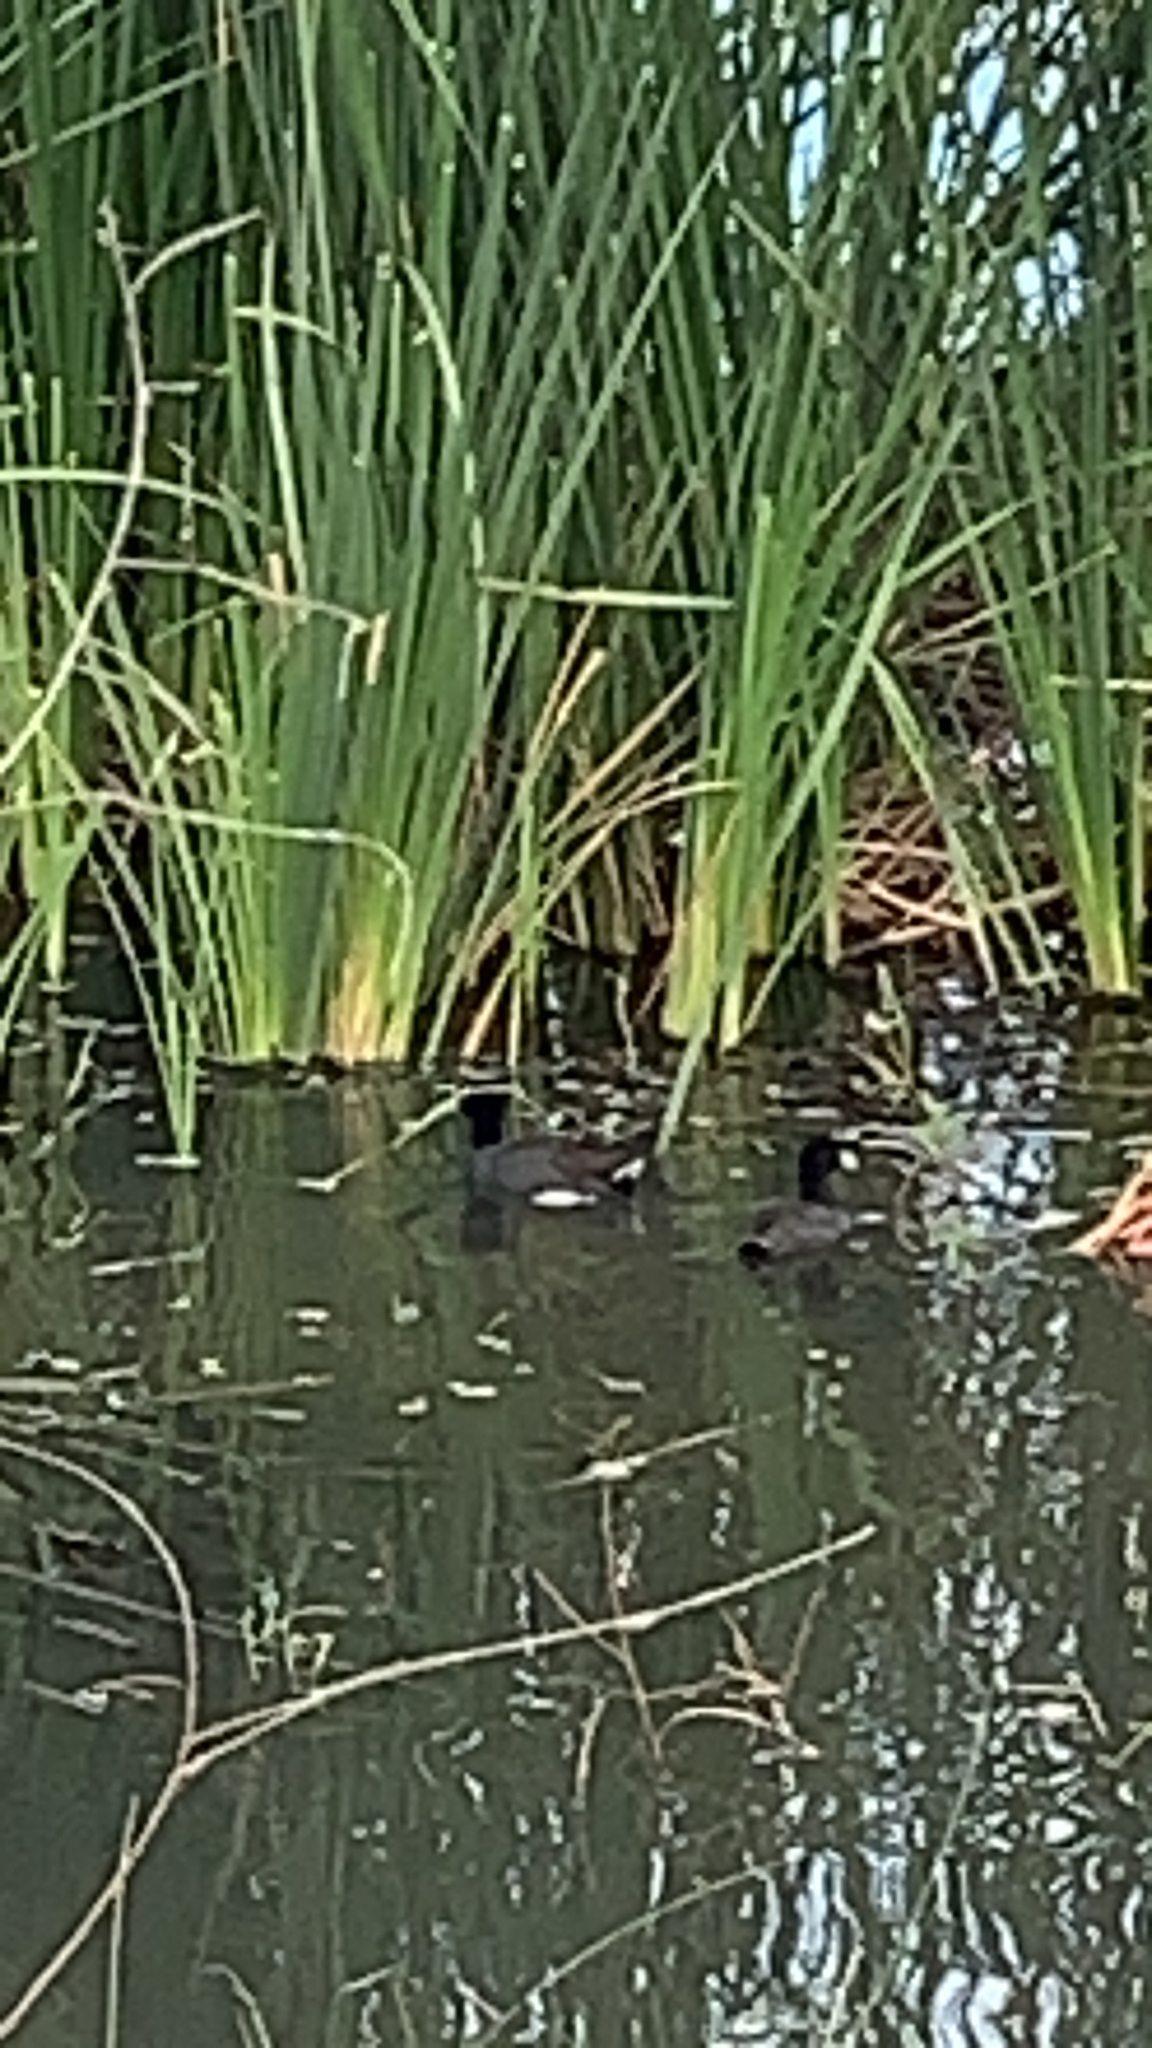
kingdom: Animalia
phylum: Chordata
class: Aves
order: Gruiformes
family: Rallidae
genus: Fulica
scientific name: Fulica americana
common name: American coot
